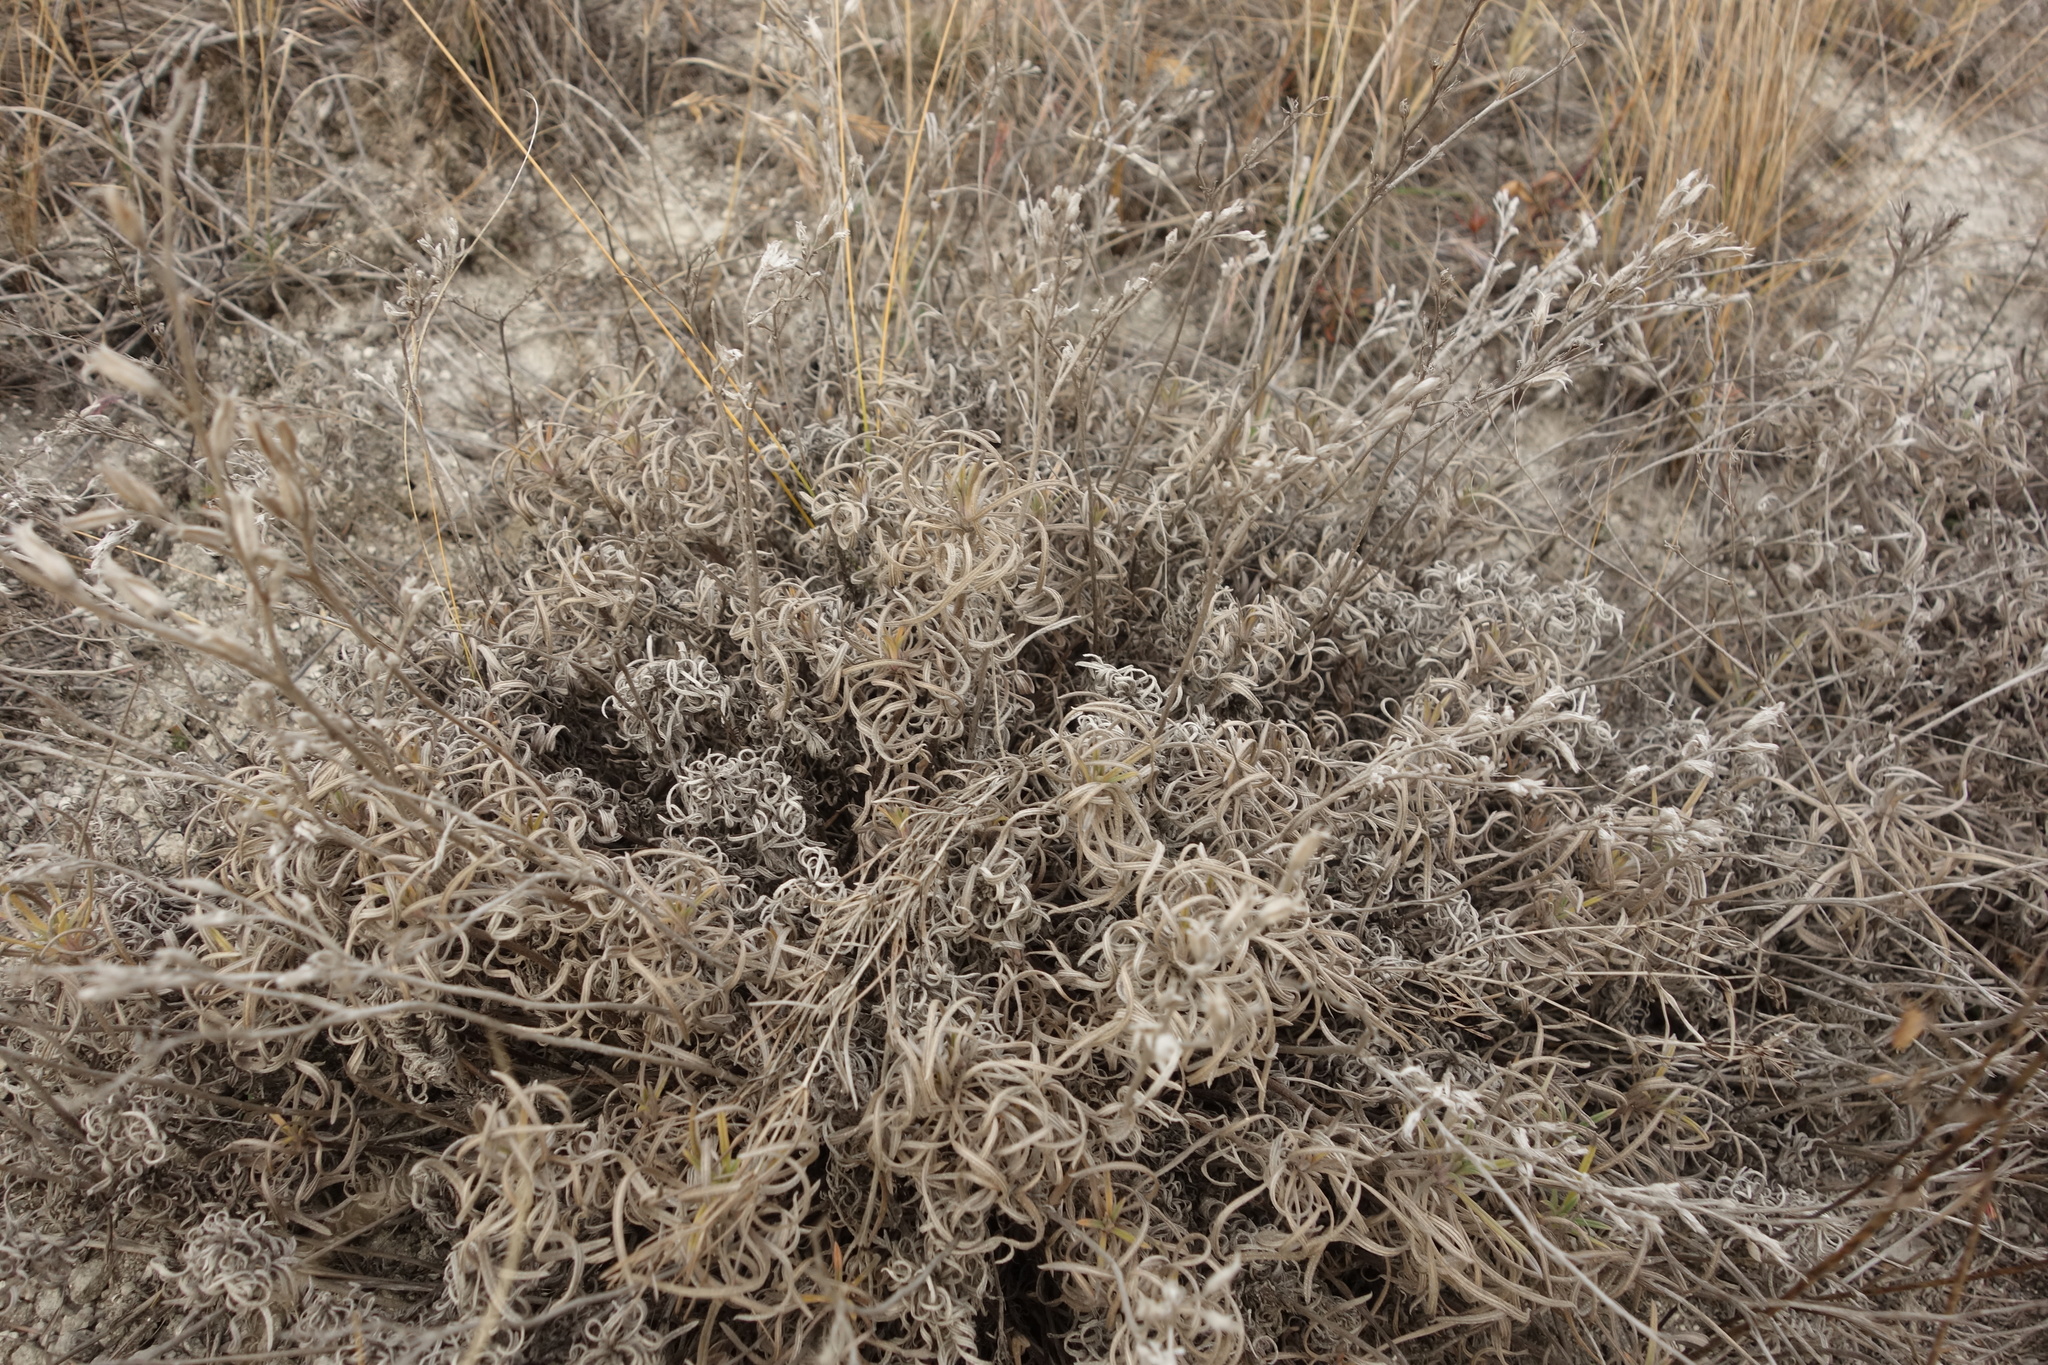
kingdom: Plantae
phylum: Tracheophyta
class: Magnoliopsida
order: Boraginales
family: Boraginaceae
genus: Onosma
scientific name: Onosma simplicissima
